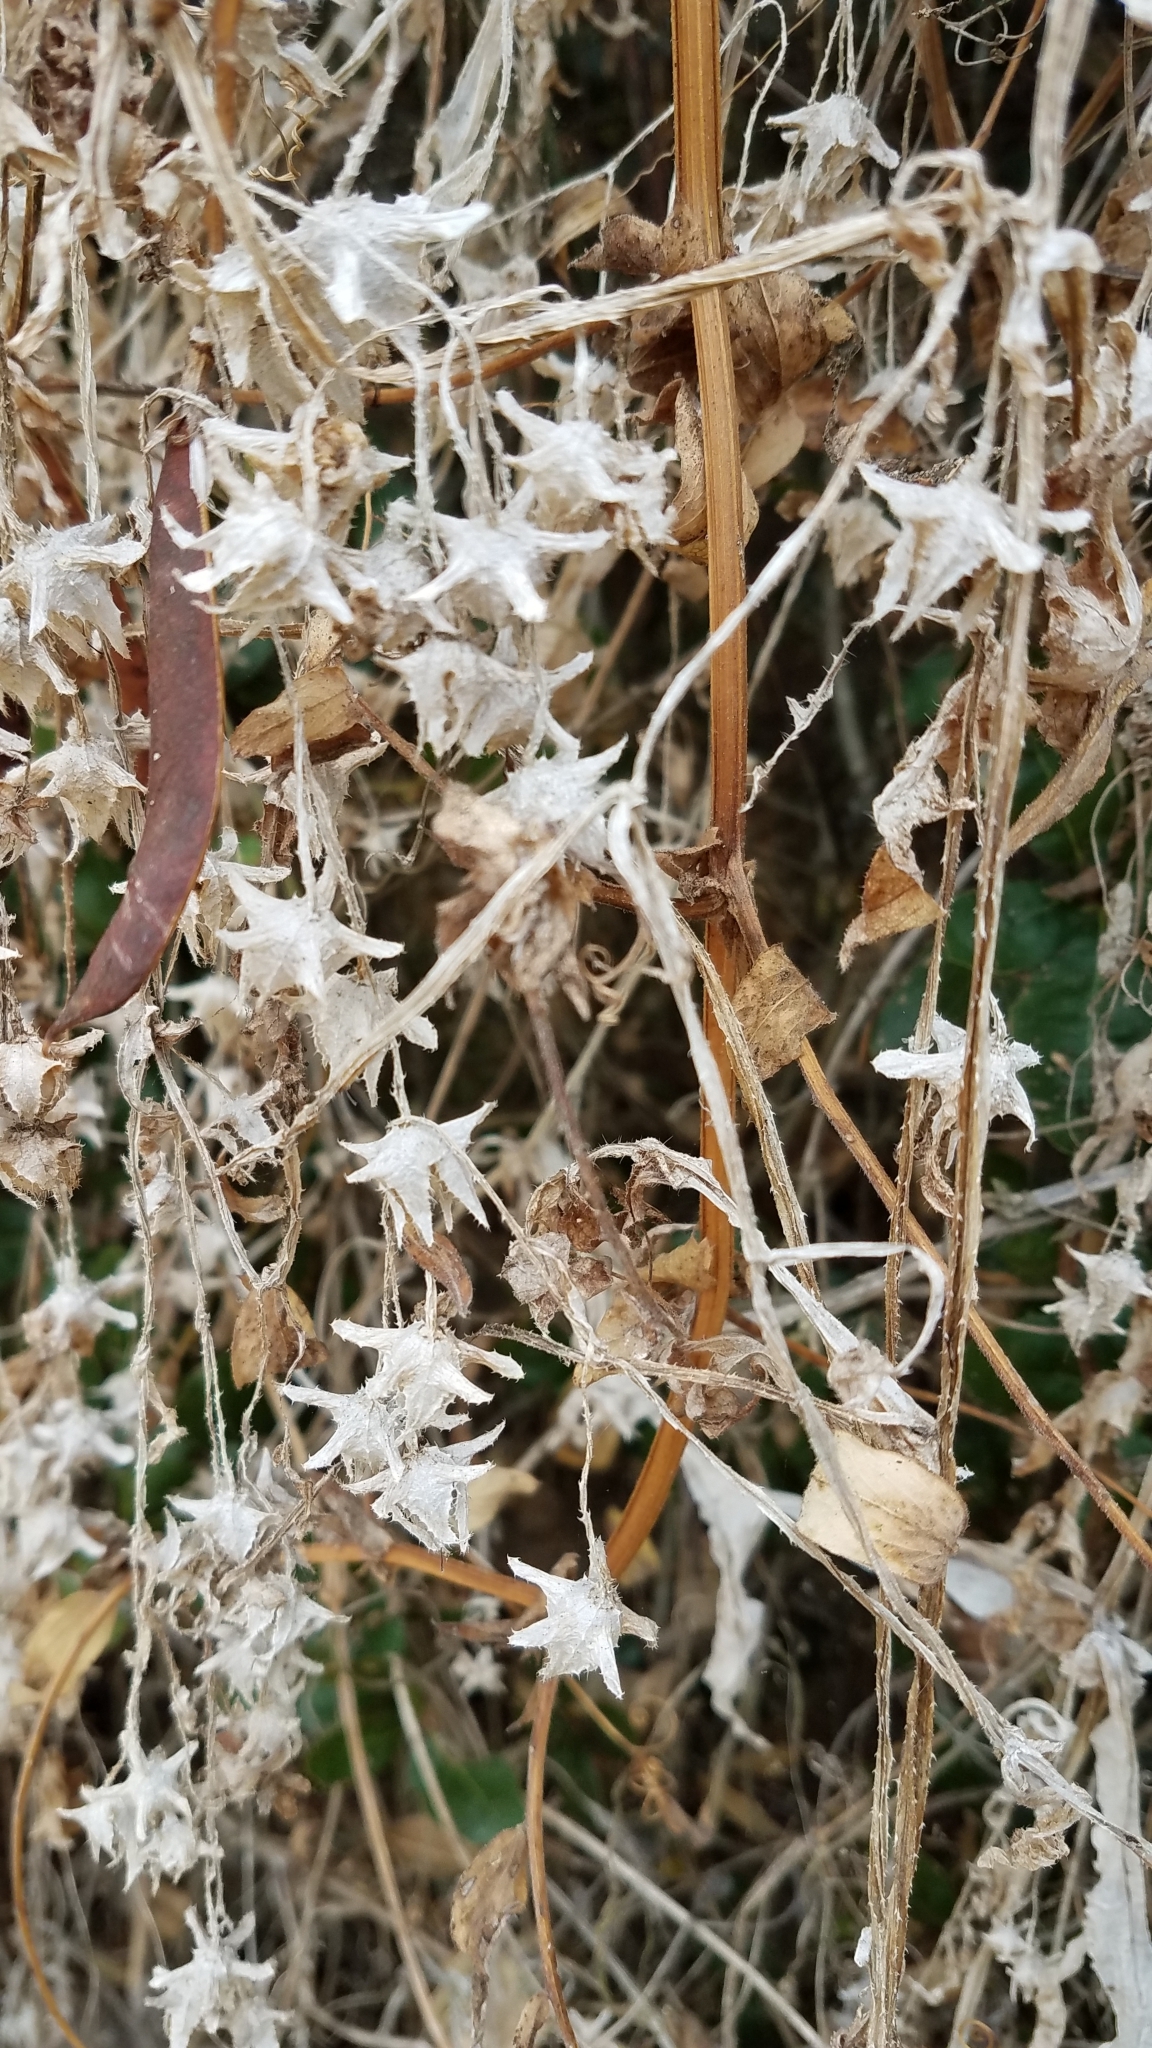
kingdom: Plantae
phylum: Tracheophyta
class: Magnoliopsida
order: Boraginales
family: Hydrophyllaceae
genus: Pholistoma
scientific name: Pholistoma auritum
